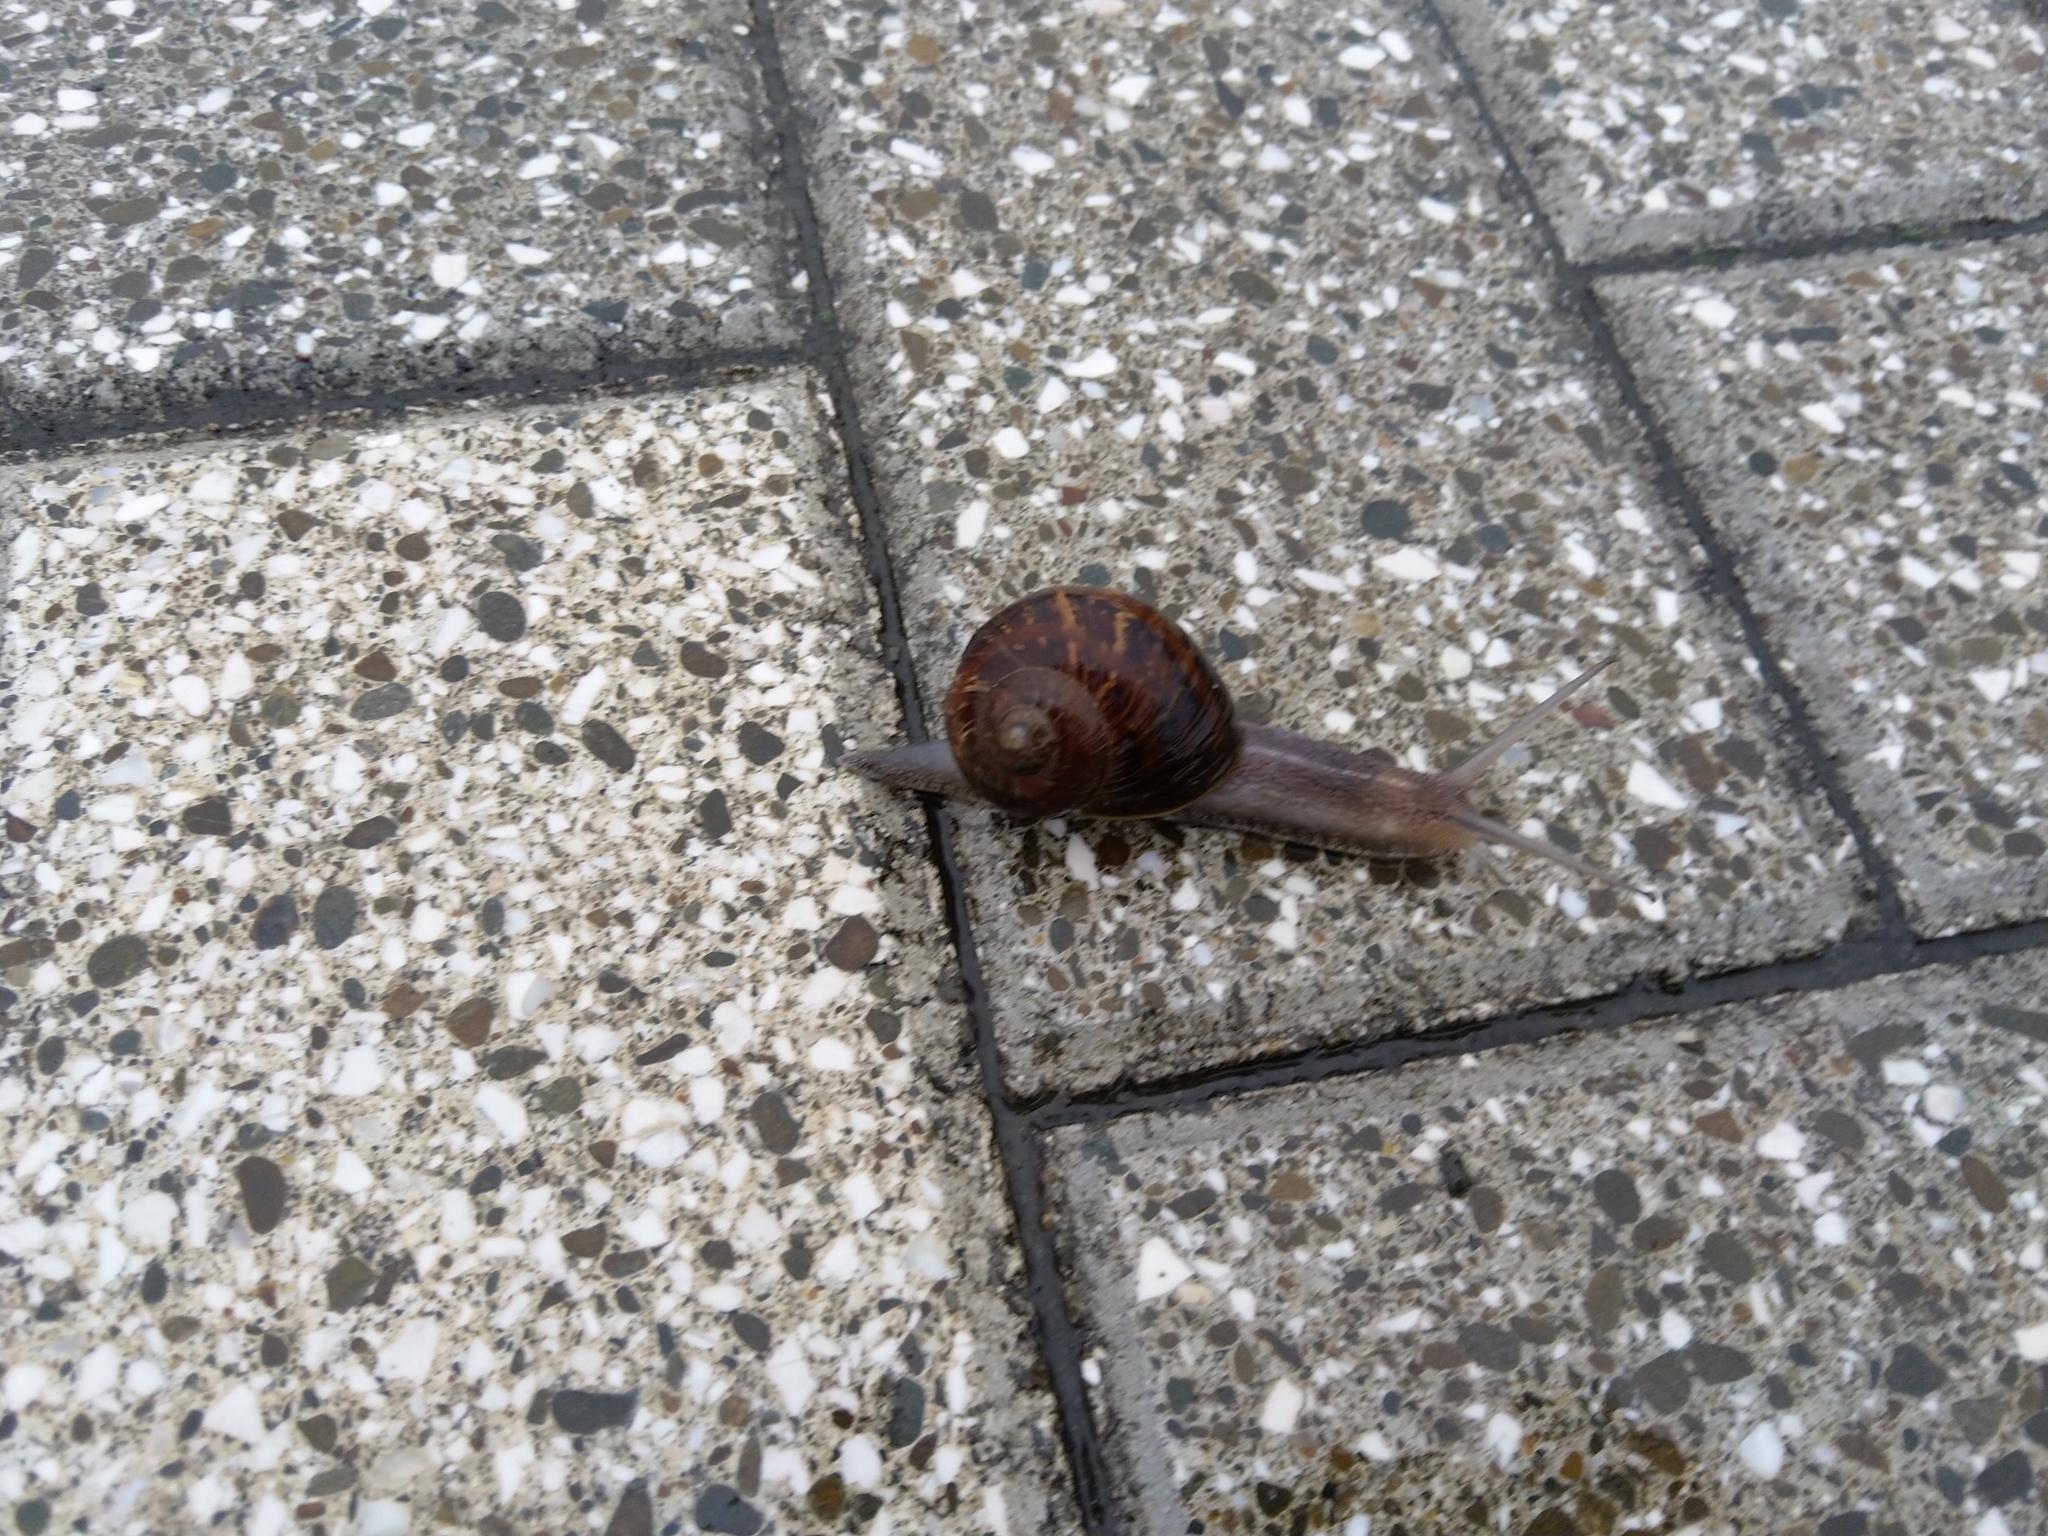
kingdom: Animalia
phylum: Mollusca
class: Gastropoda
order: Stylommatophora
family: Helicidae
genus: Cornu
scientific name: Cornu aspersum
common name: Brown garden snail
